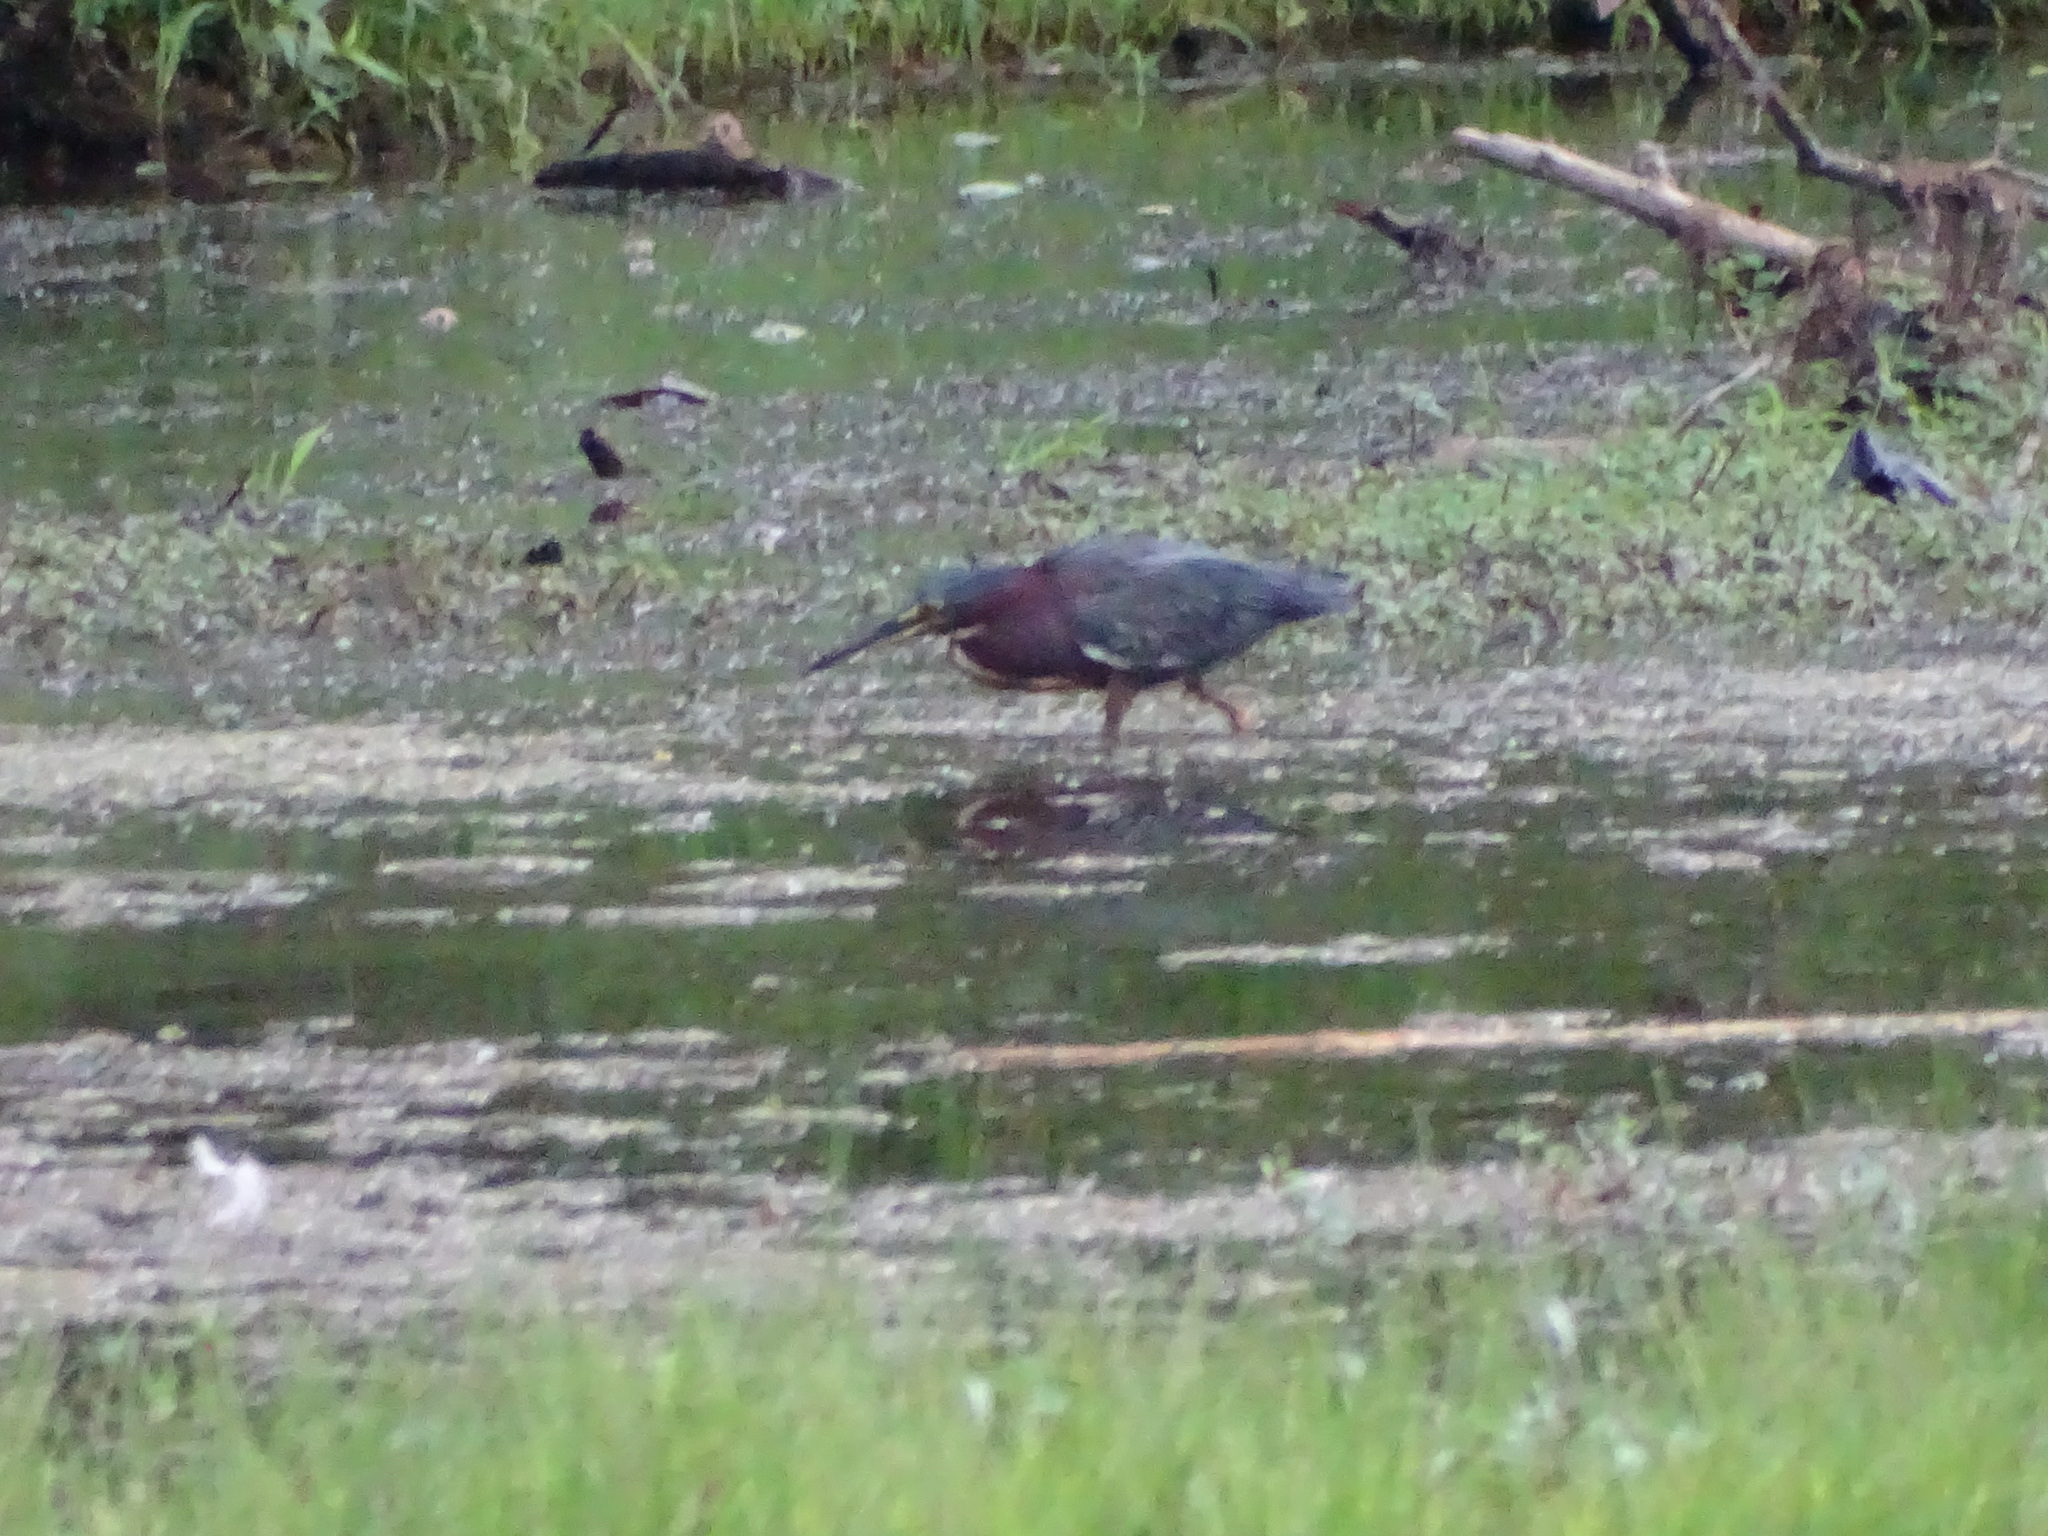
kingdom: Animalia
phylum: Chordata
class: Aves
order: Pelecaniformes
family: Ardeidae
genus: Butorides
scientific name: Butorides virescens
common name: Green heron
